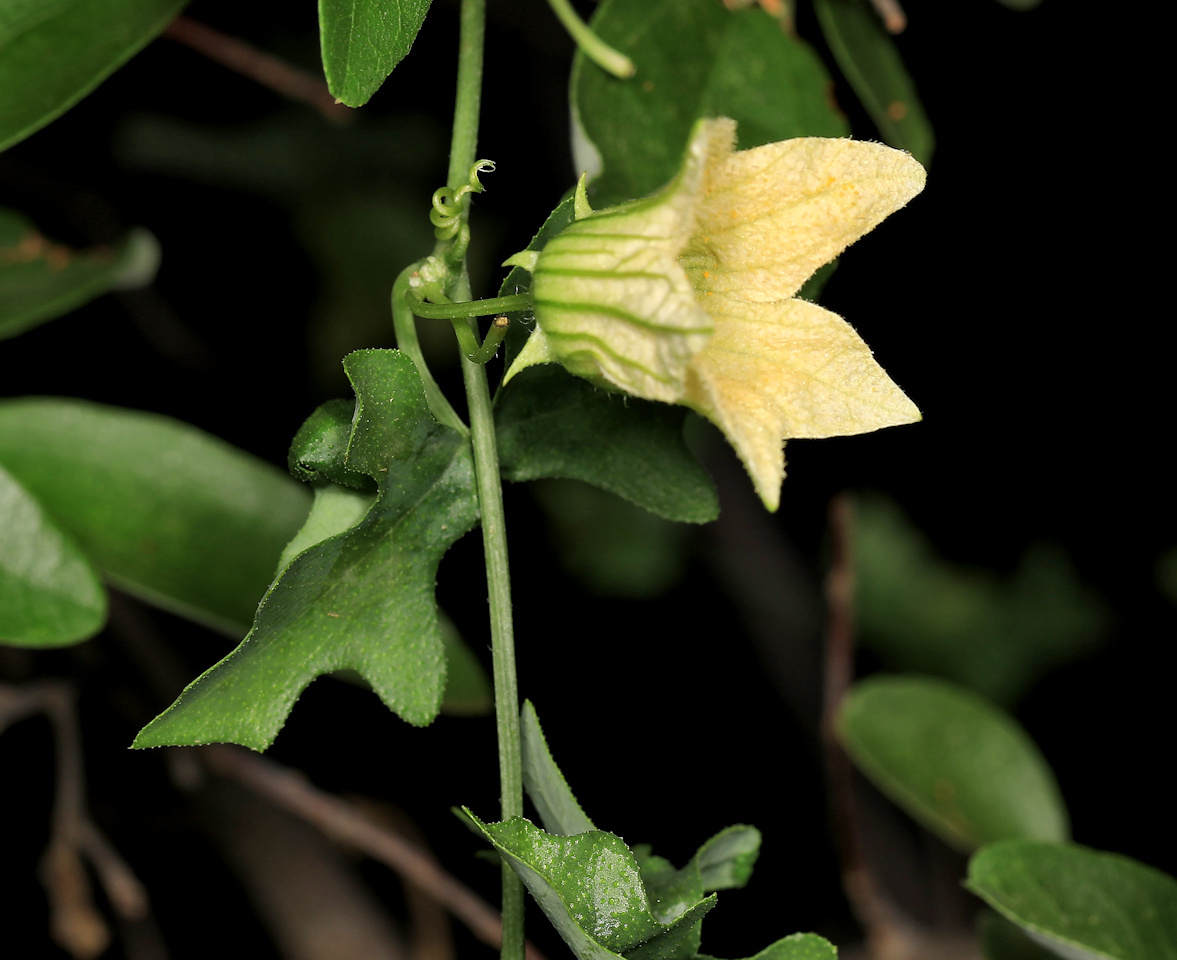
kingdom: Plantae
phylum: Tracheophyta
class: Magnoliopsida
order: Cucurbitales
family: Cucurbitaceae
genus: Coccinia
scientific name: Coccinia rehmannii
